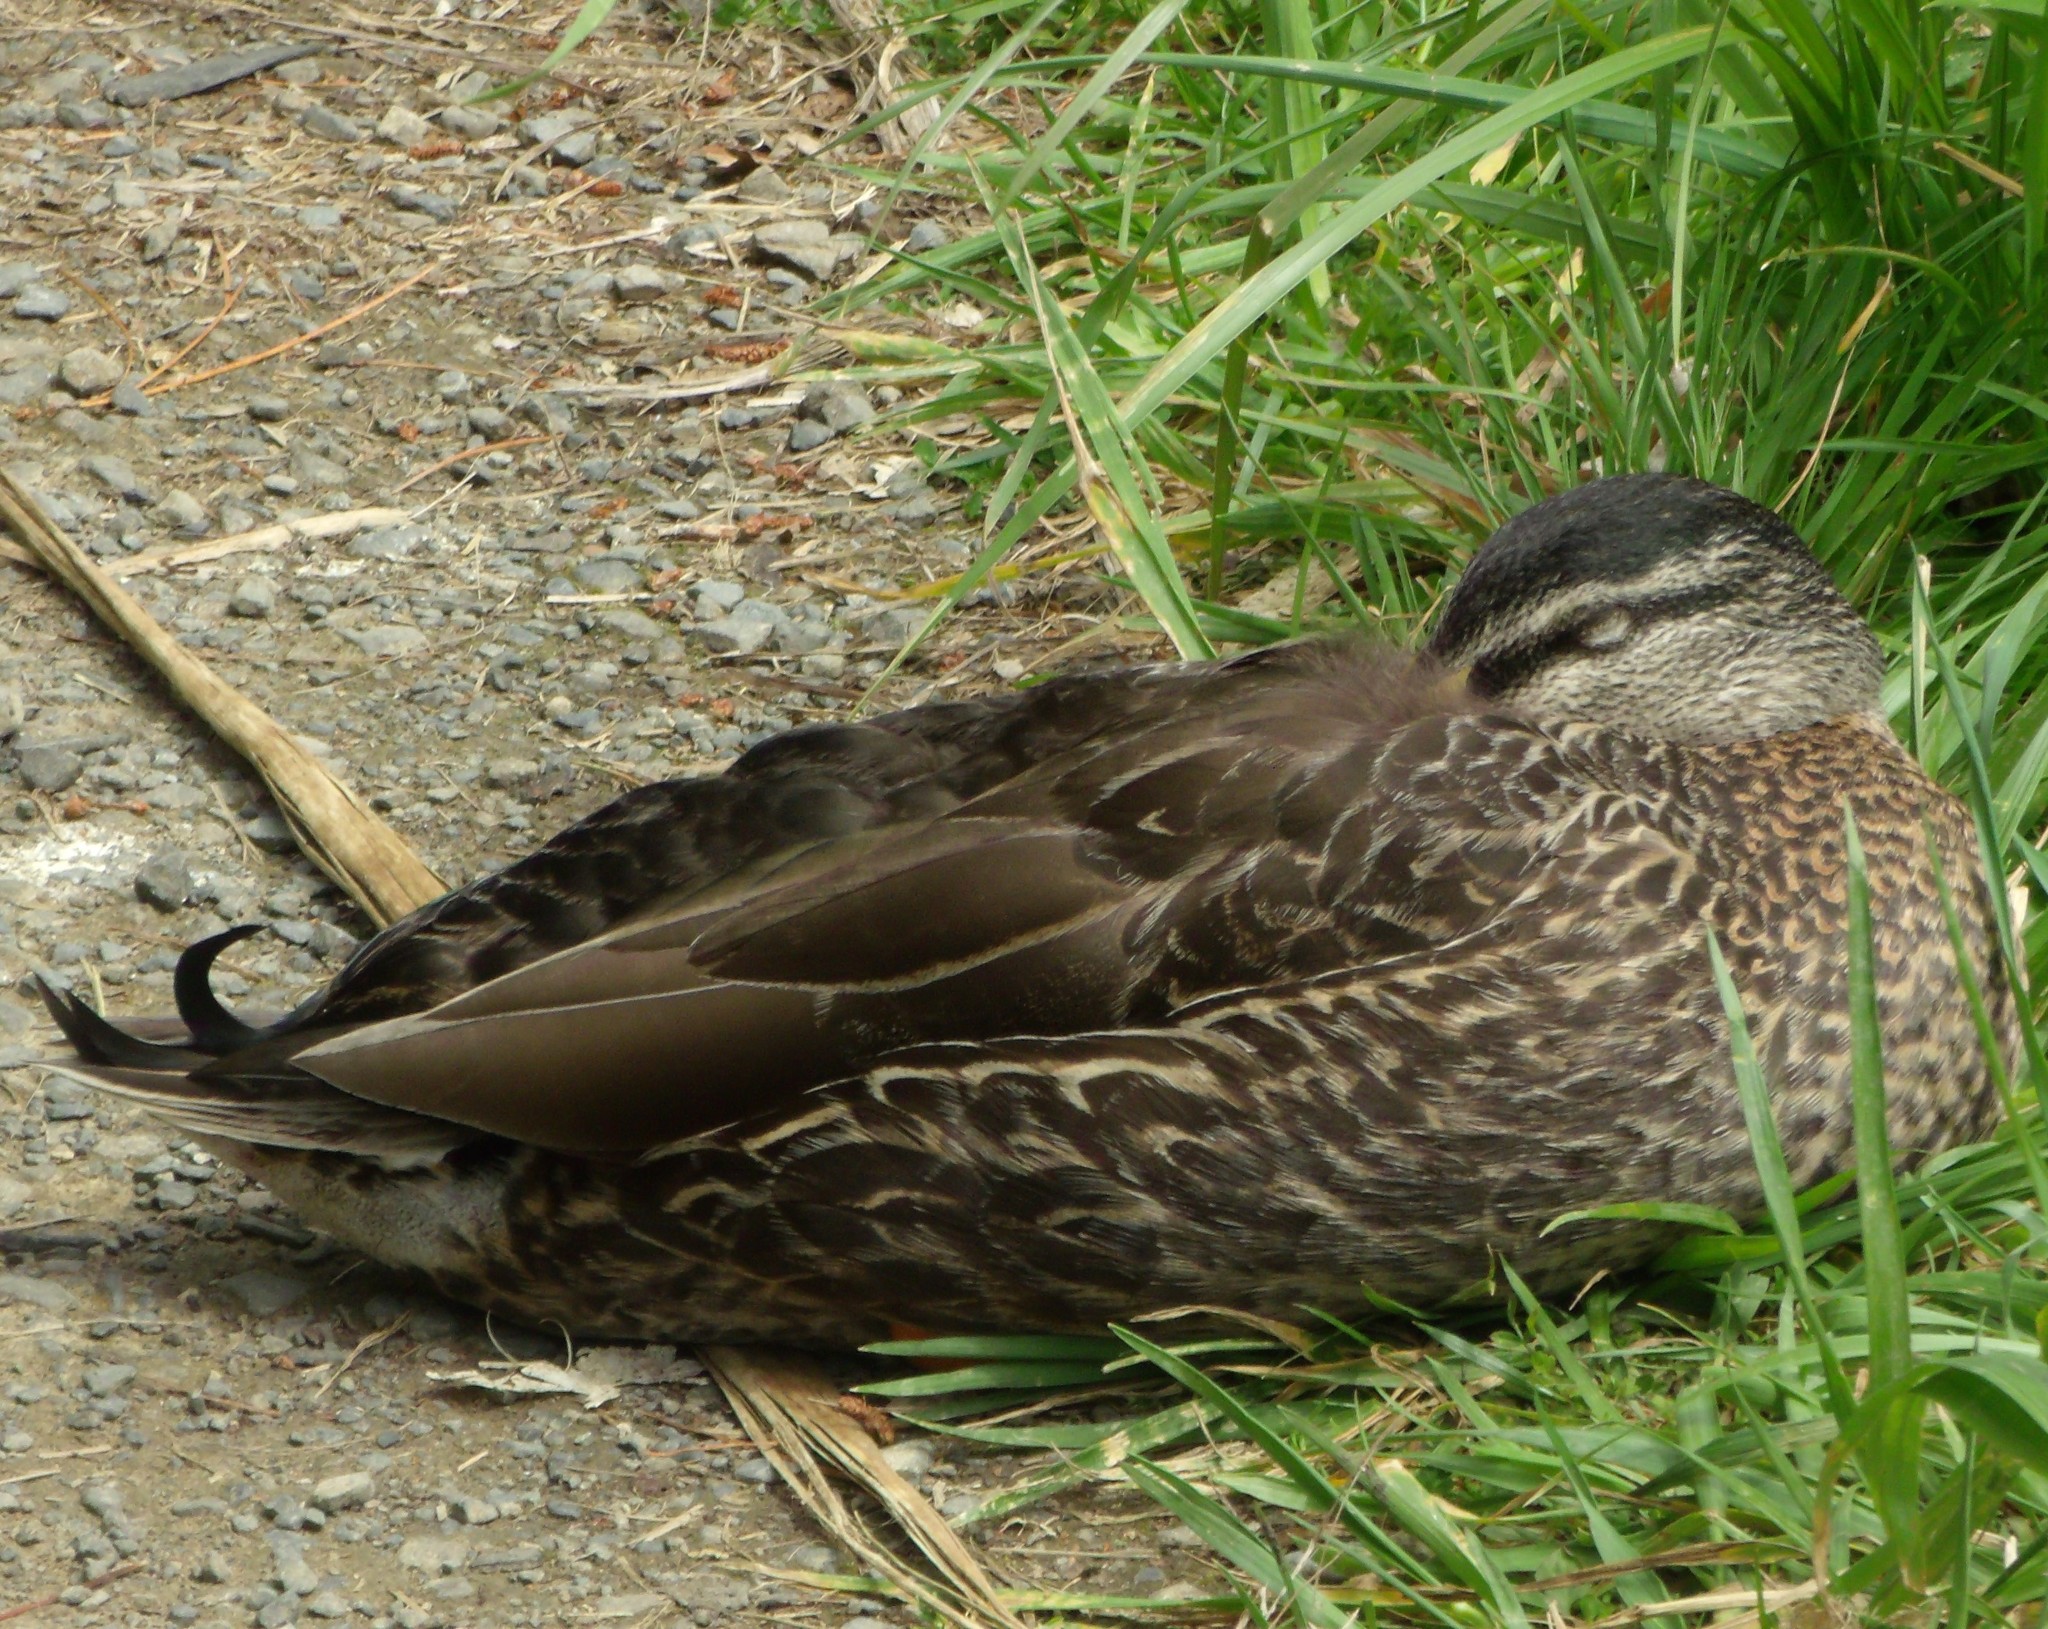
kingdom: Animalia
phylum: Chordata
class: Aves
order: Anseriformes
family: Anatidae
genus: Anas
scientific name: Anas
